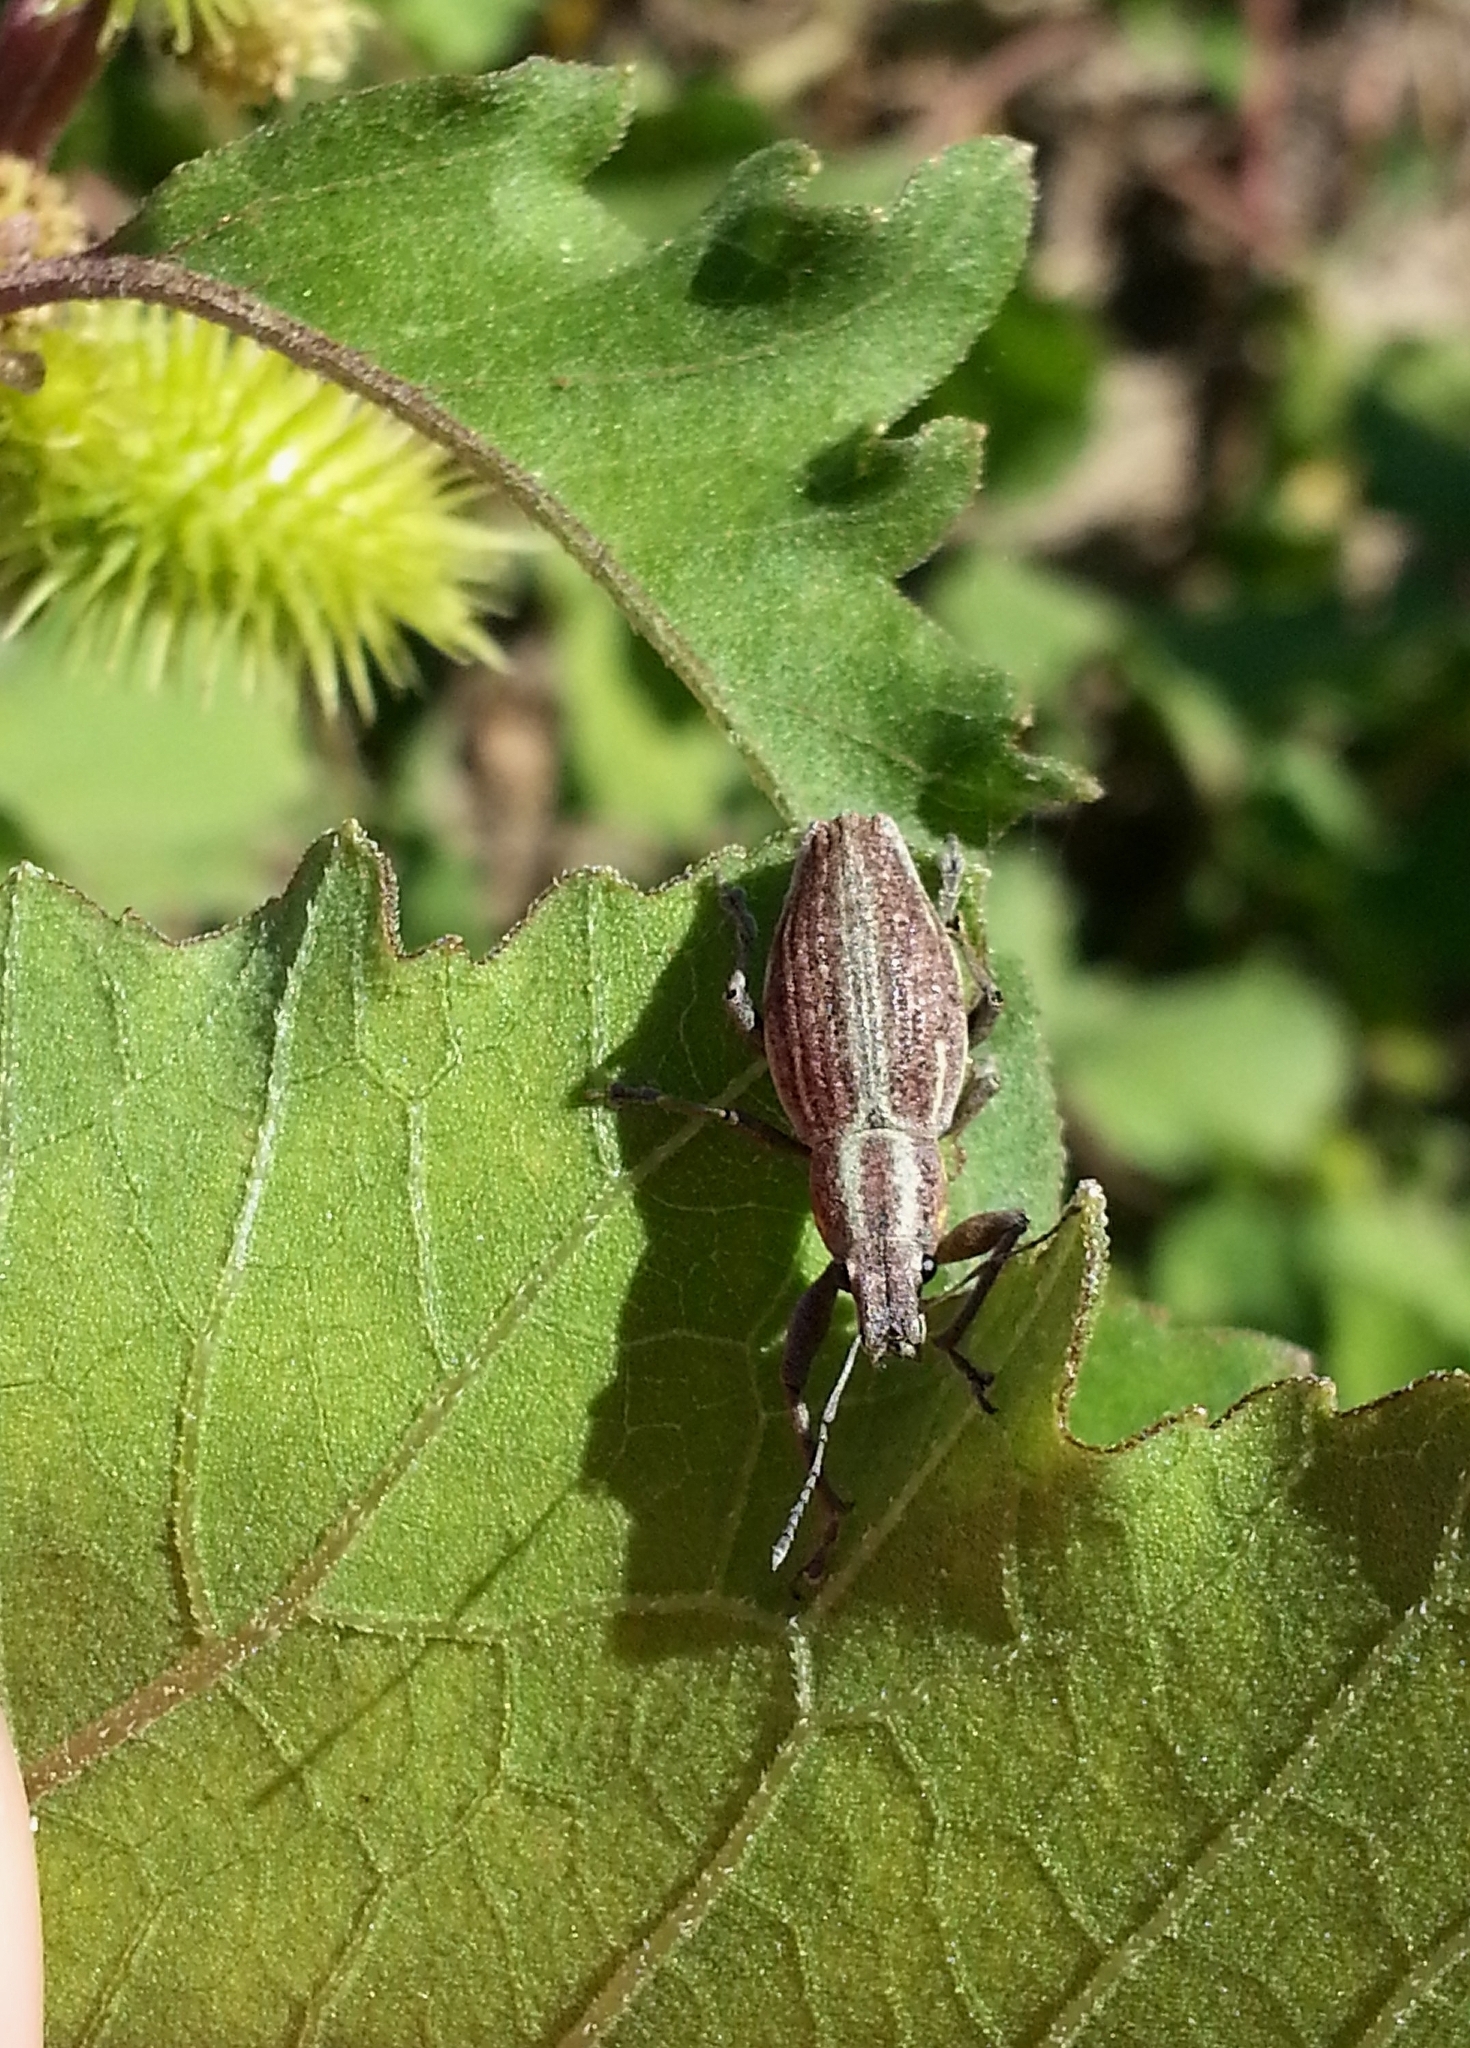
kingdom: Animalia
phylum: Arthropoda
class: Insecta
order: Coleoptera
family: Curculionidae
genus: Naupactus
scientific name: Naupactus xanthographus
